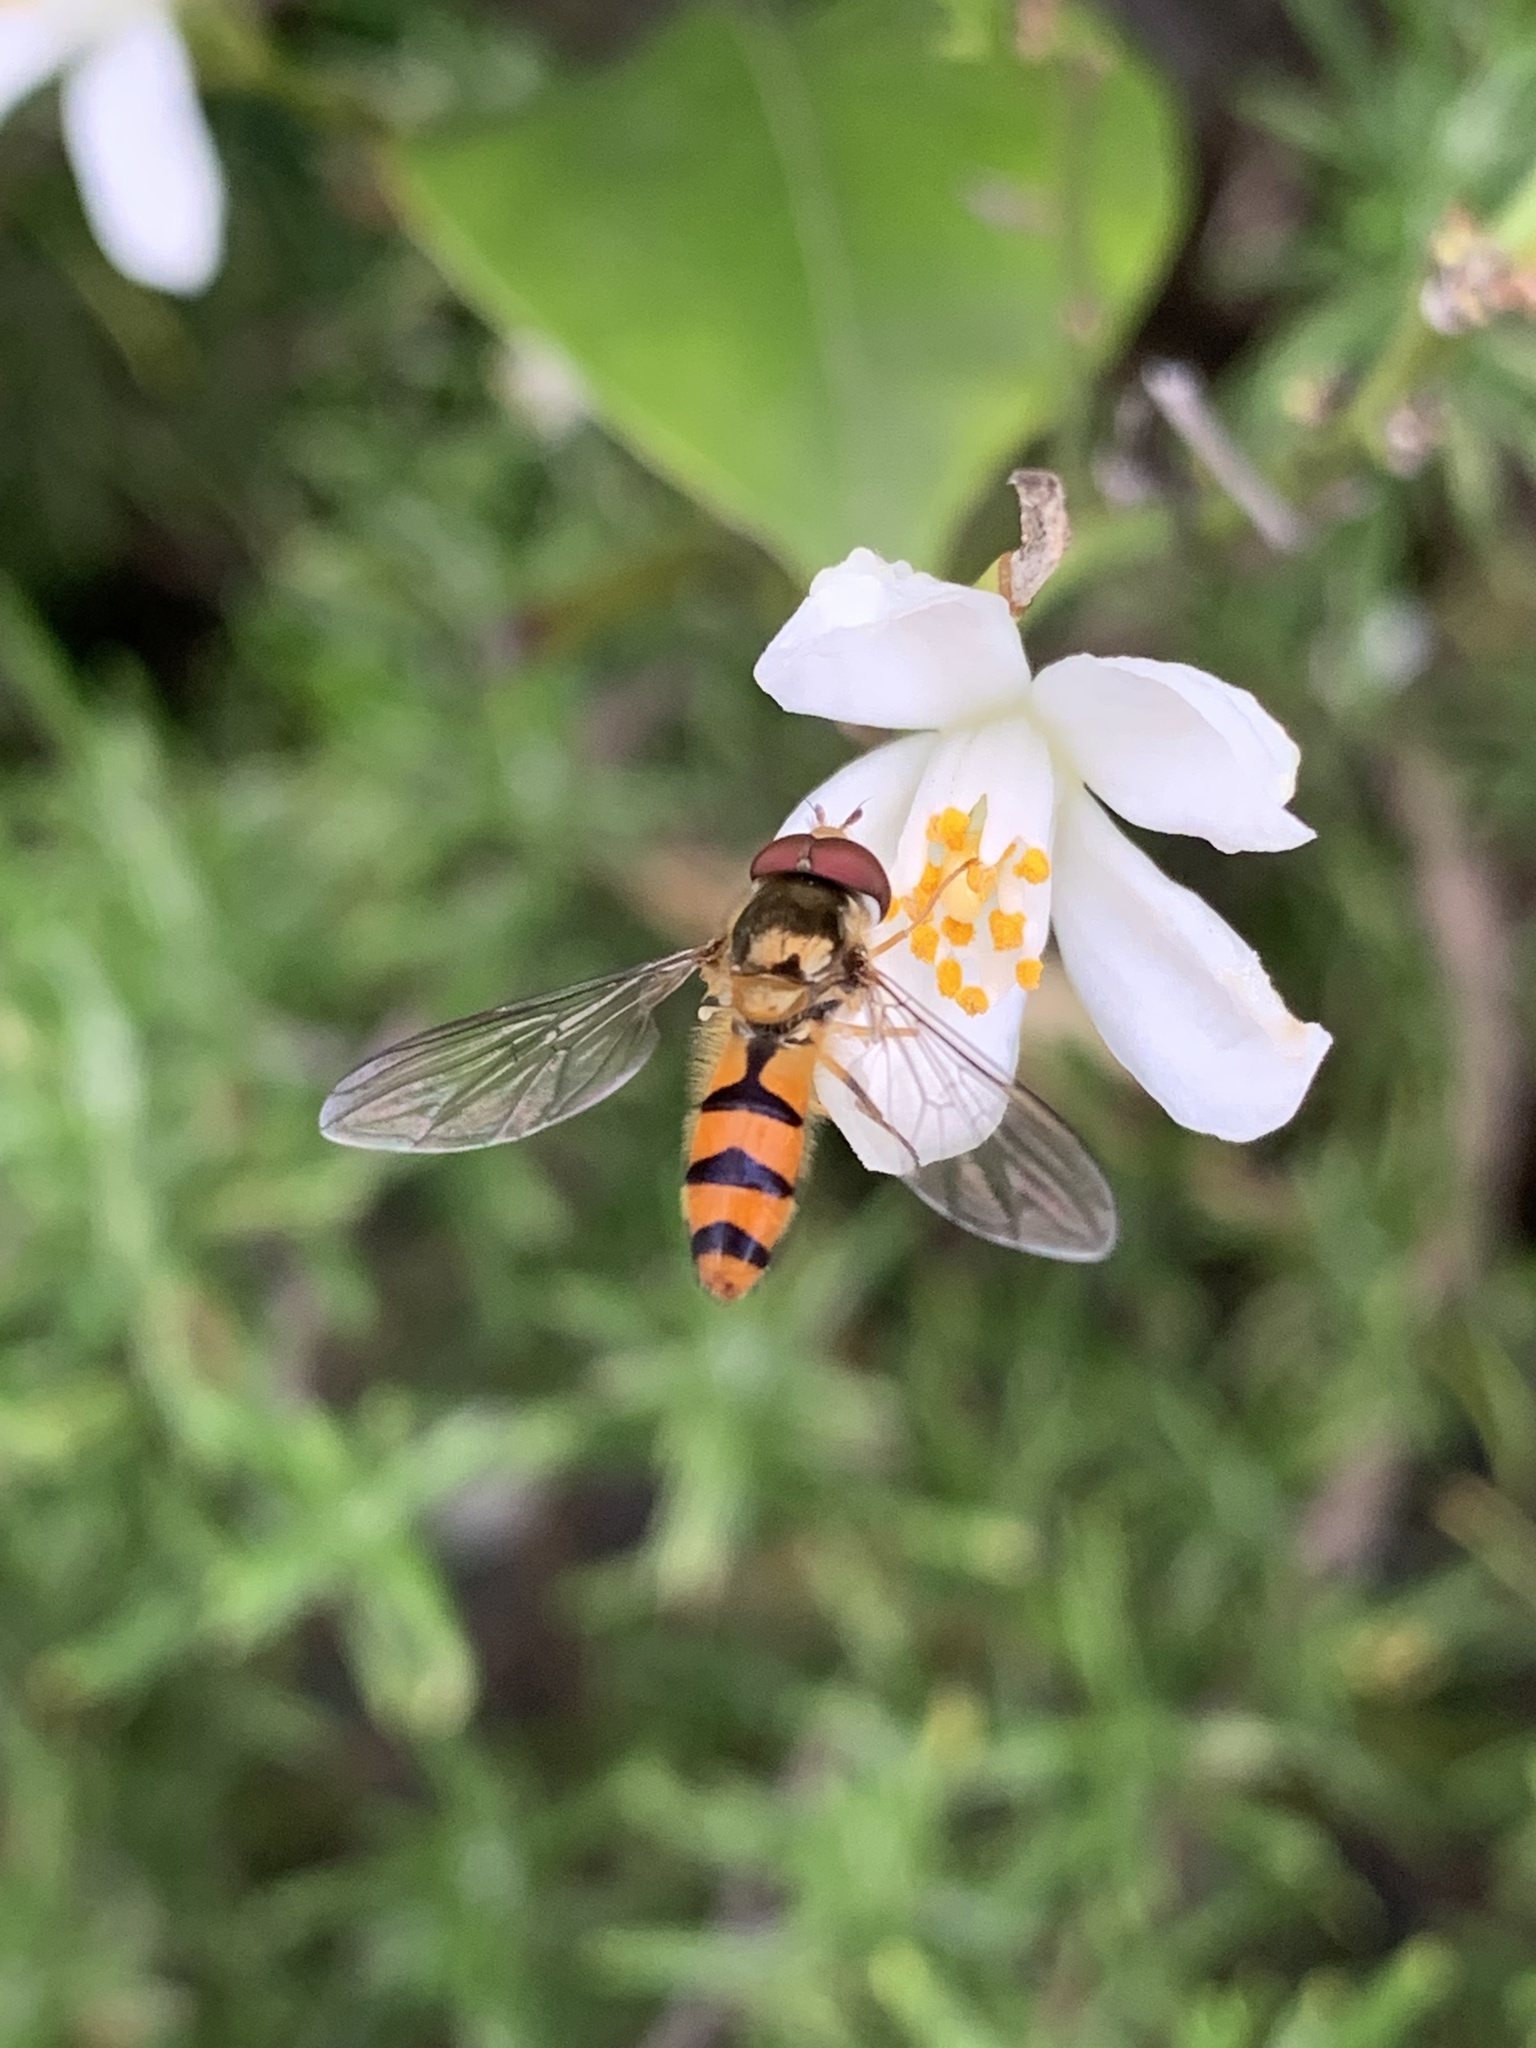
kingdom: Animalia
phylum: Arthropoda
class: Insecta
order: Diptera
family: Syrphidae
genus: Meliscaeva
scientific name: Meliscaeva cinctella
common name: American thintail fly
